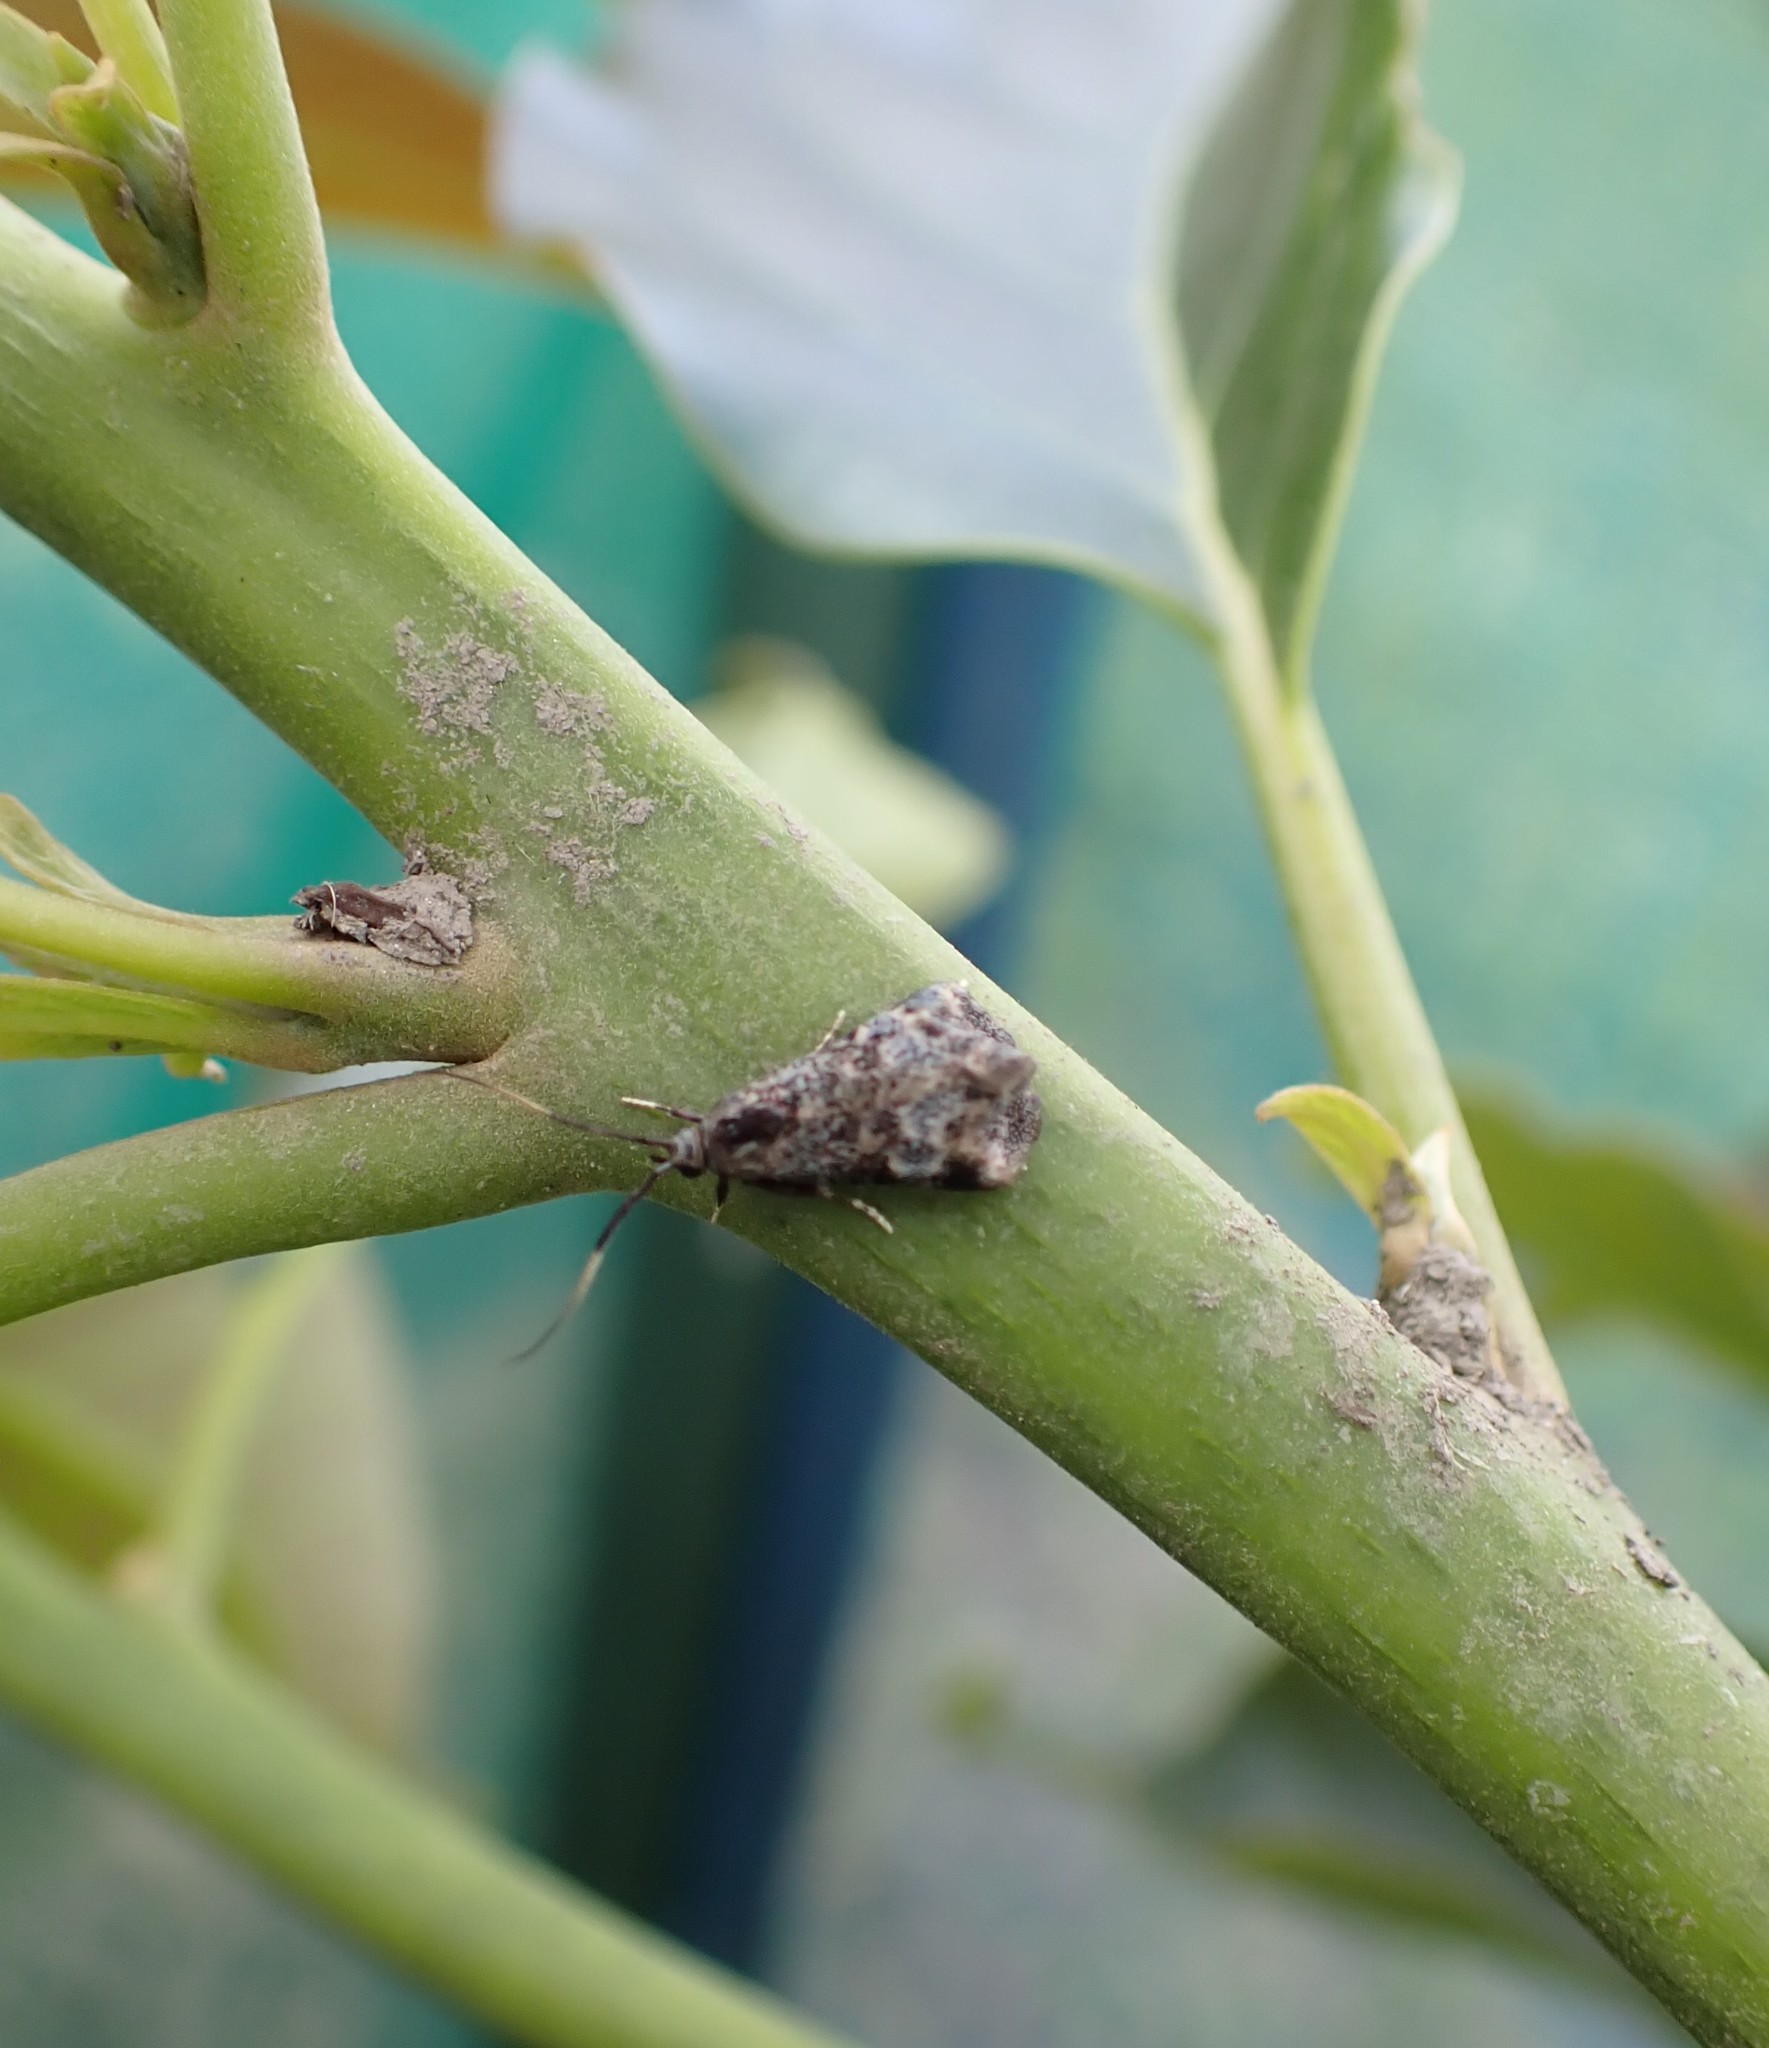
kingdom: Animalia
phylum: Arthropoda
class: Insecta
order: Lepidoptera
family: Oecophoridae
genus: Hierodoris
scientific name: Hierodoris stellata
